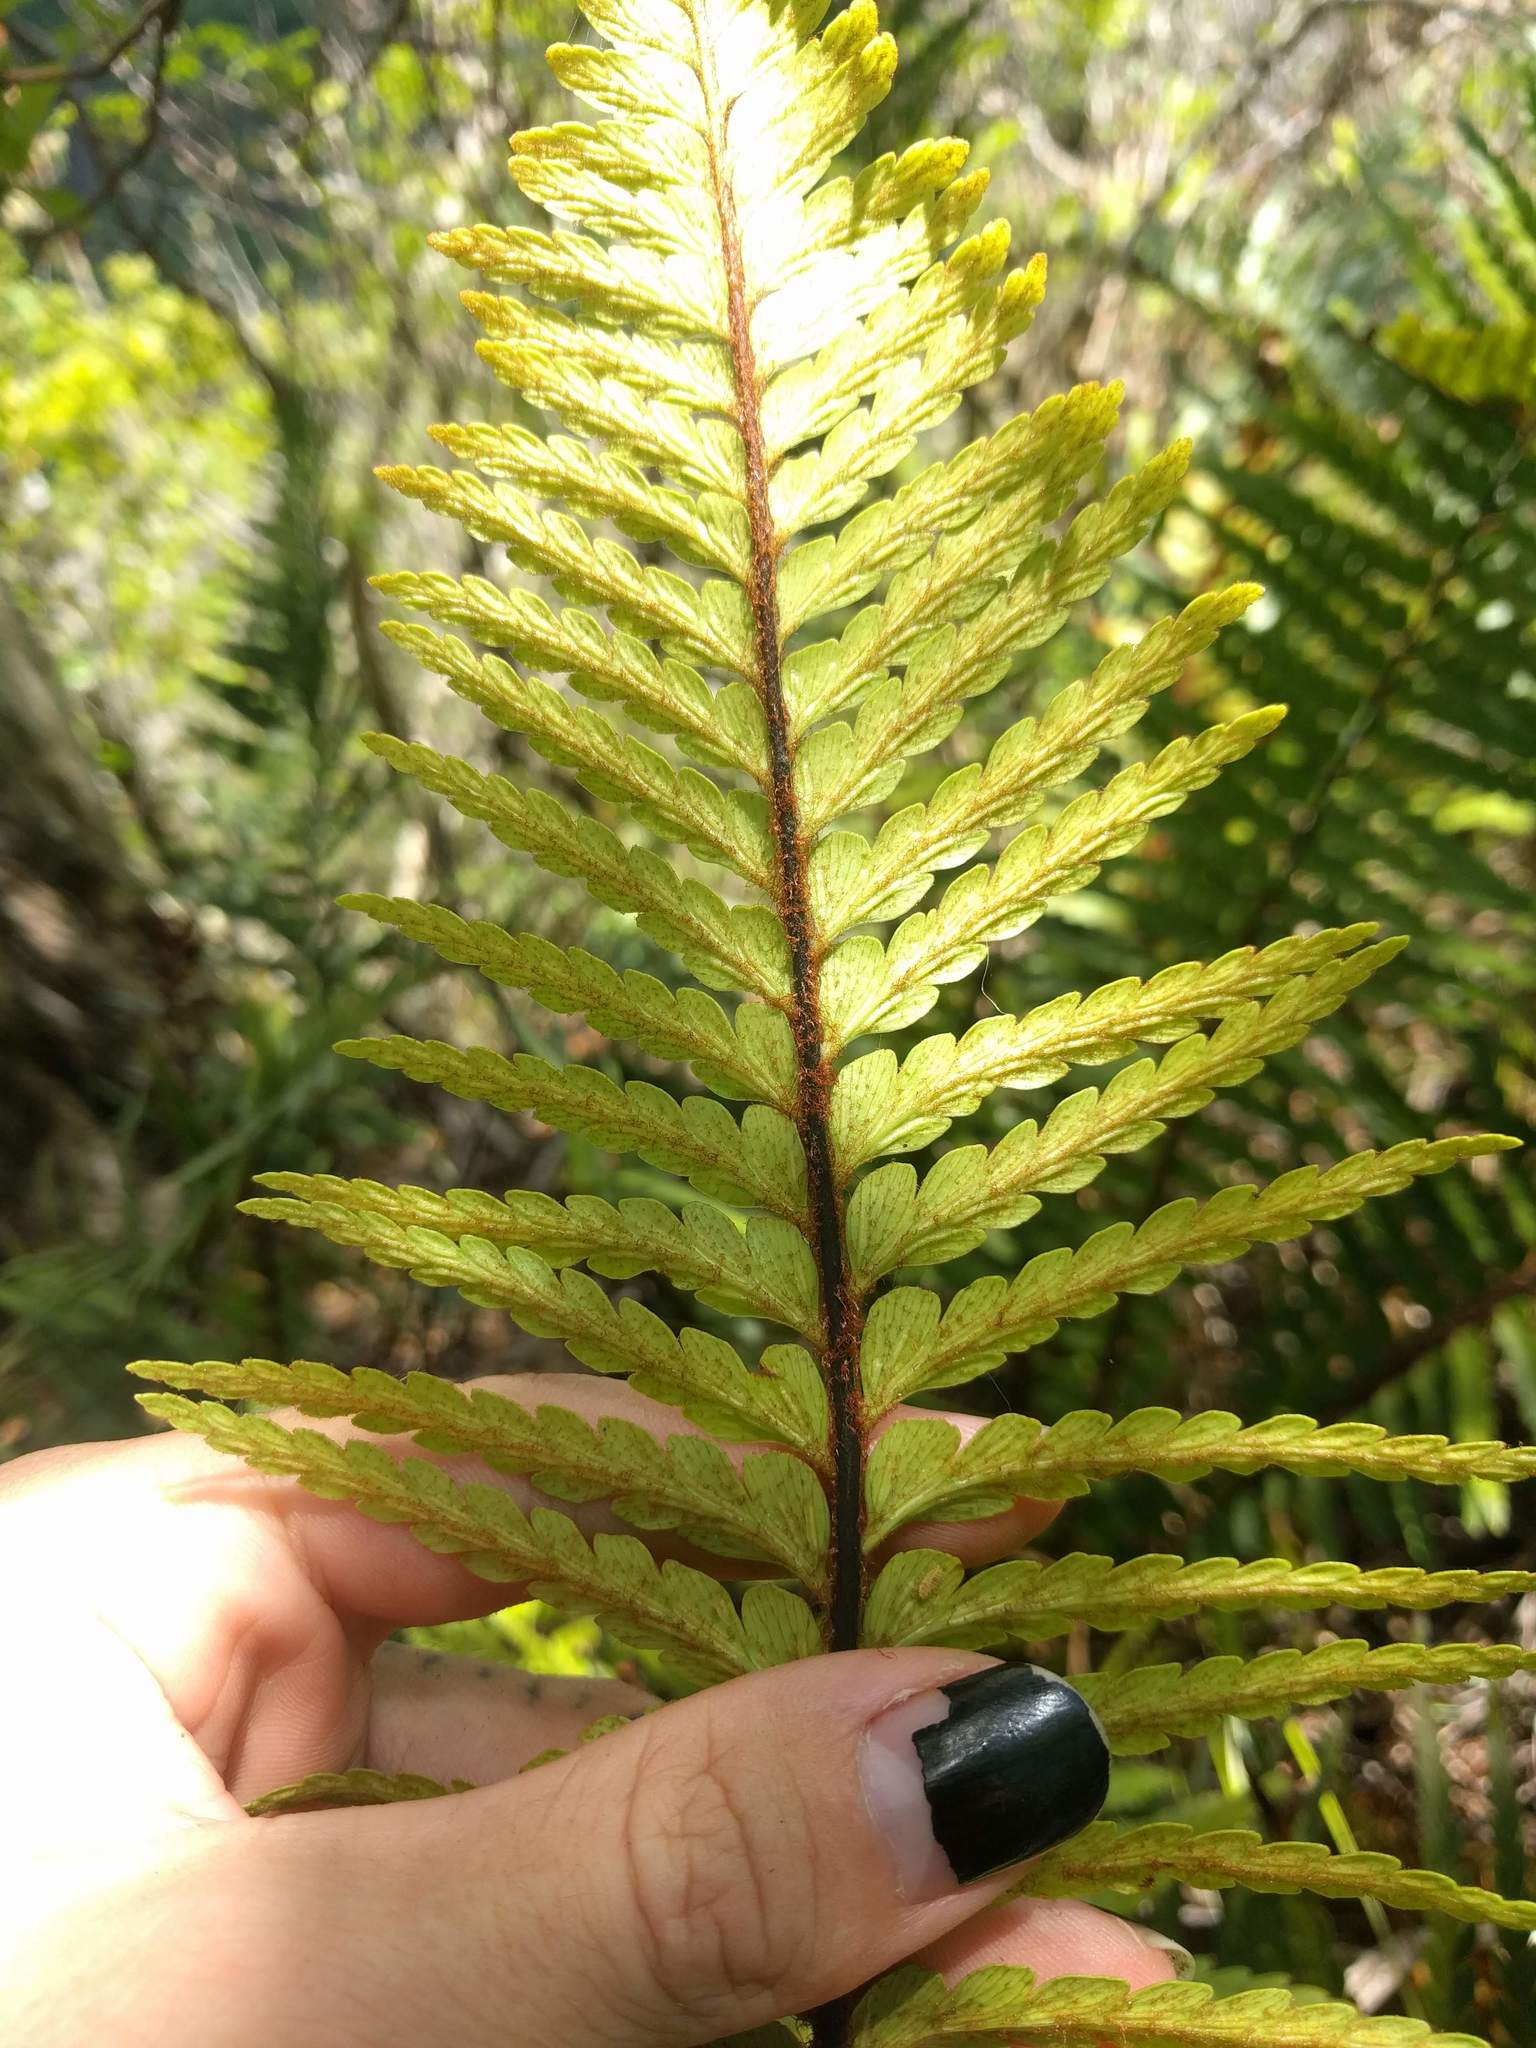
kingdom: Plantae
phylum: Tracheophyta
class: Polypodiopsida
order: Polypodiales
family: Aspleniaceae
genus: Asplenium
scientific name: Asplenium horridum
